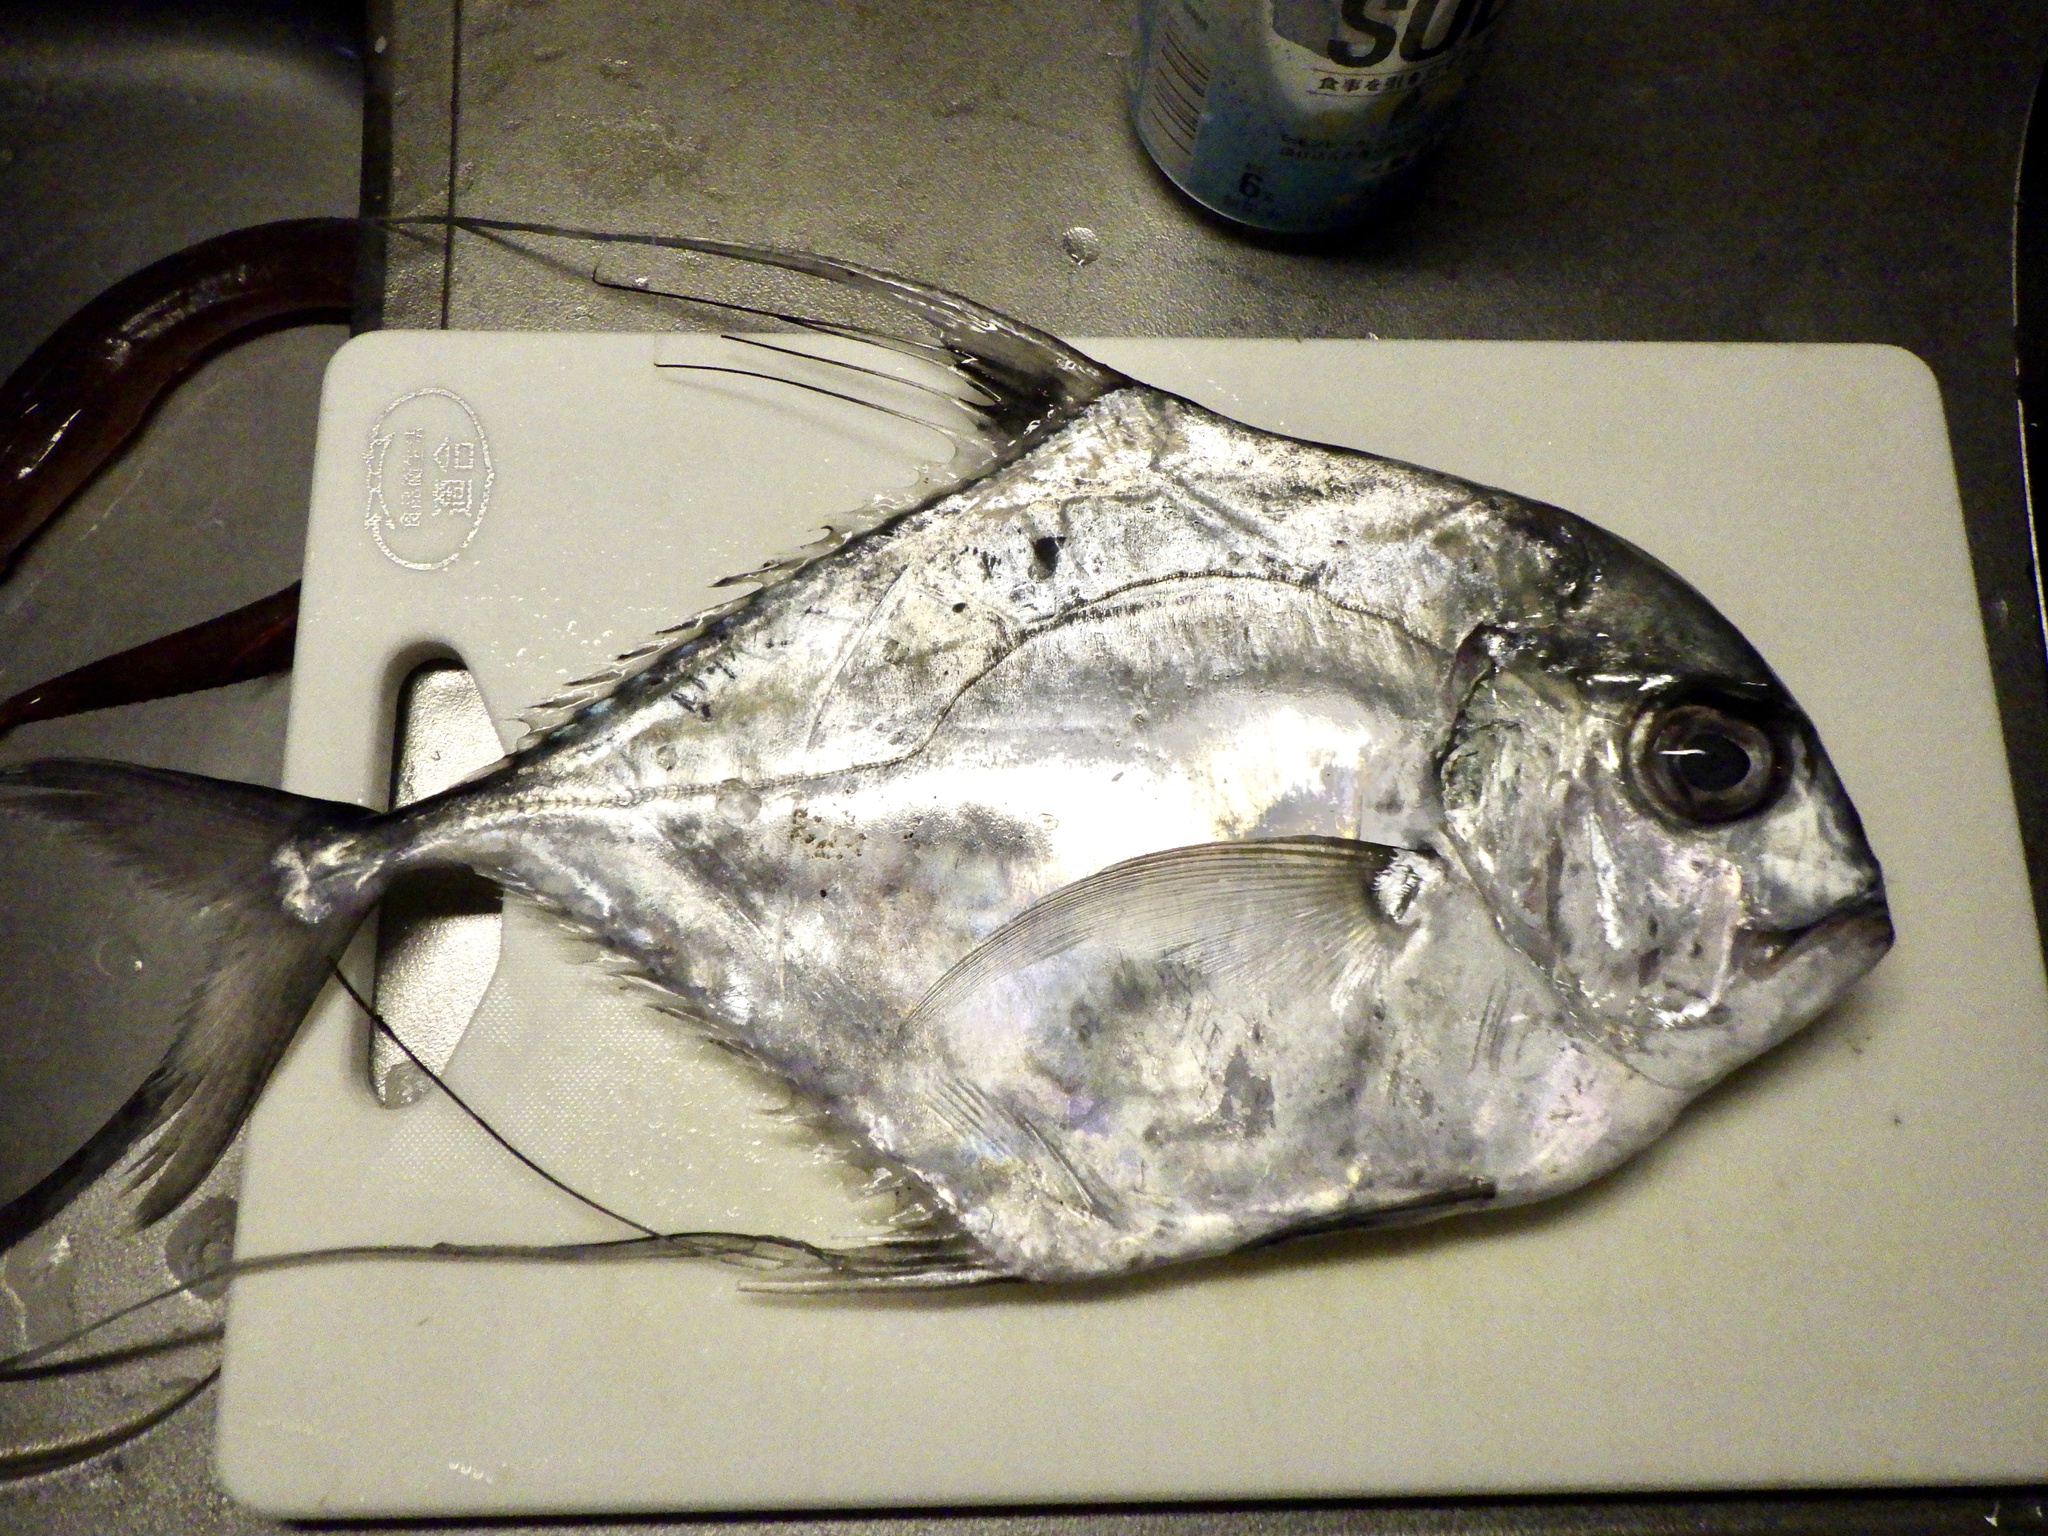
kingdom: Animalia
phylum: Chordata
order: Perciformes
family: Carangidae
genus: Alectis
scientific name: Alectis ciliaris
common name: African pompano
